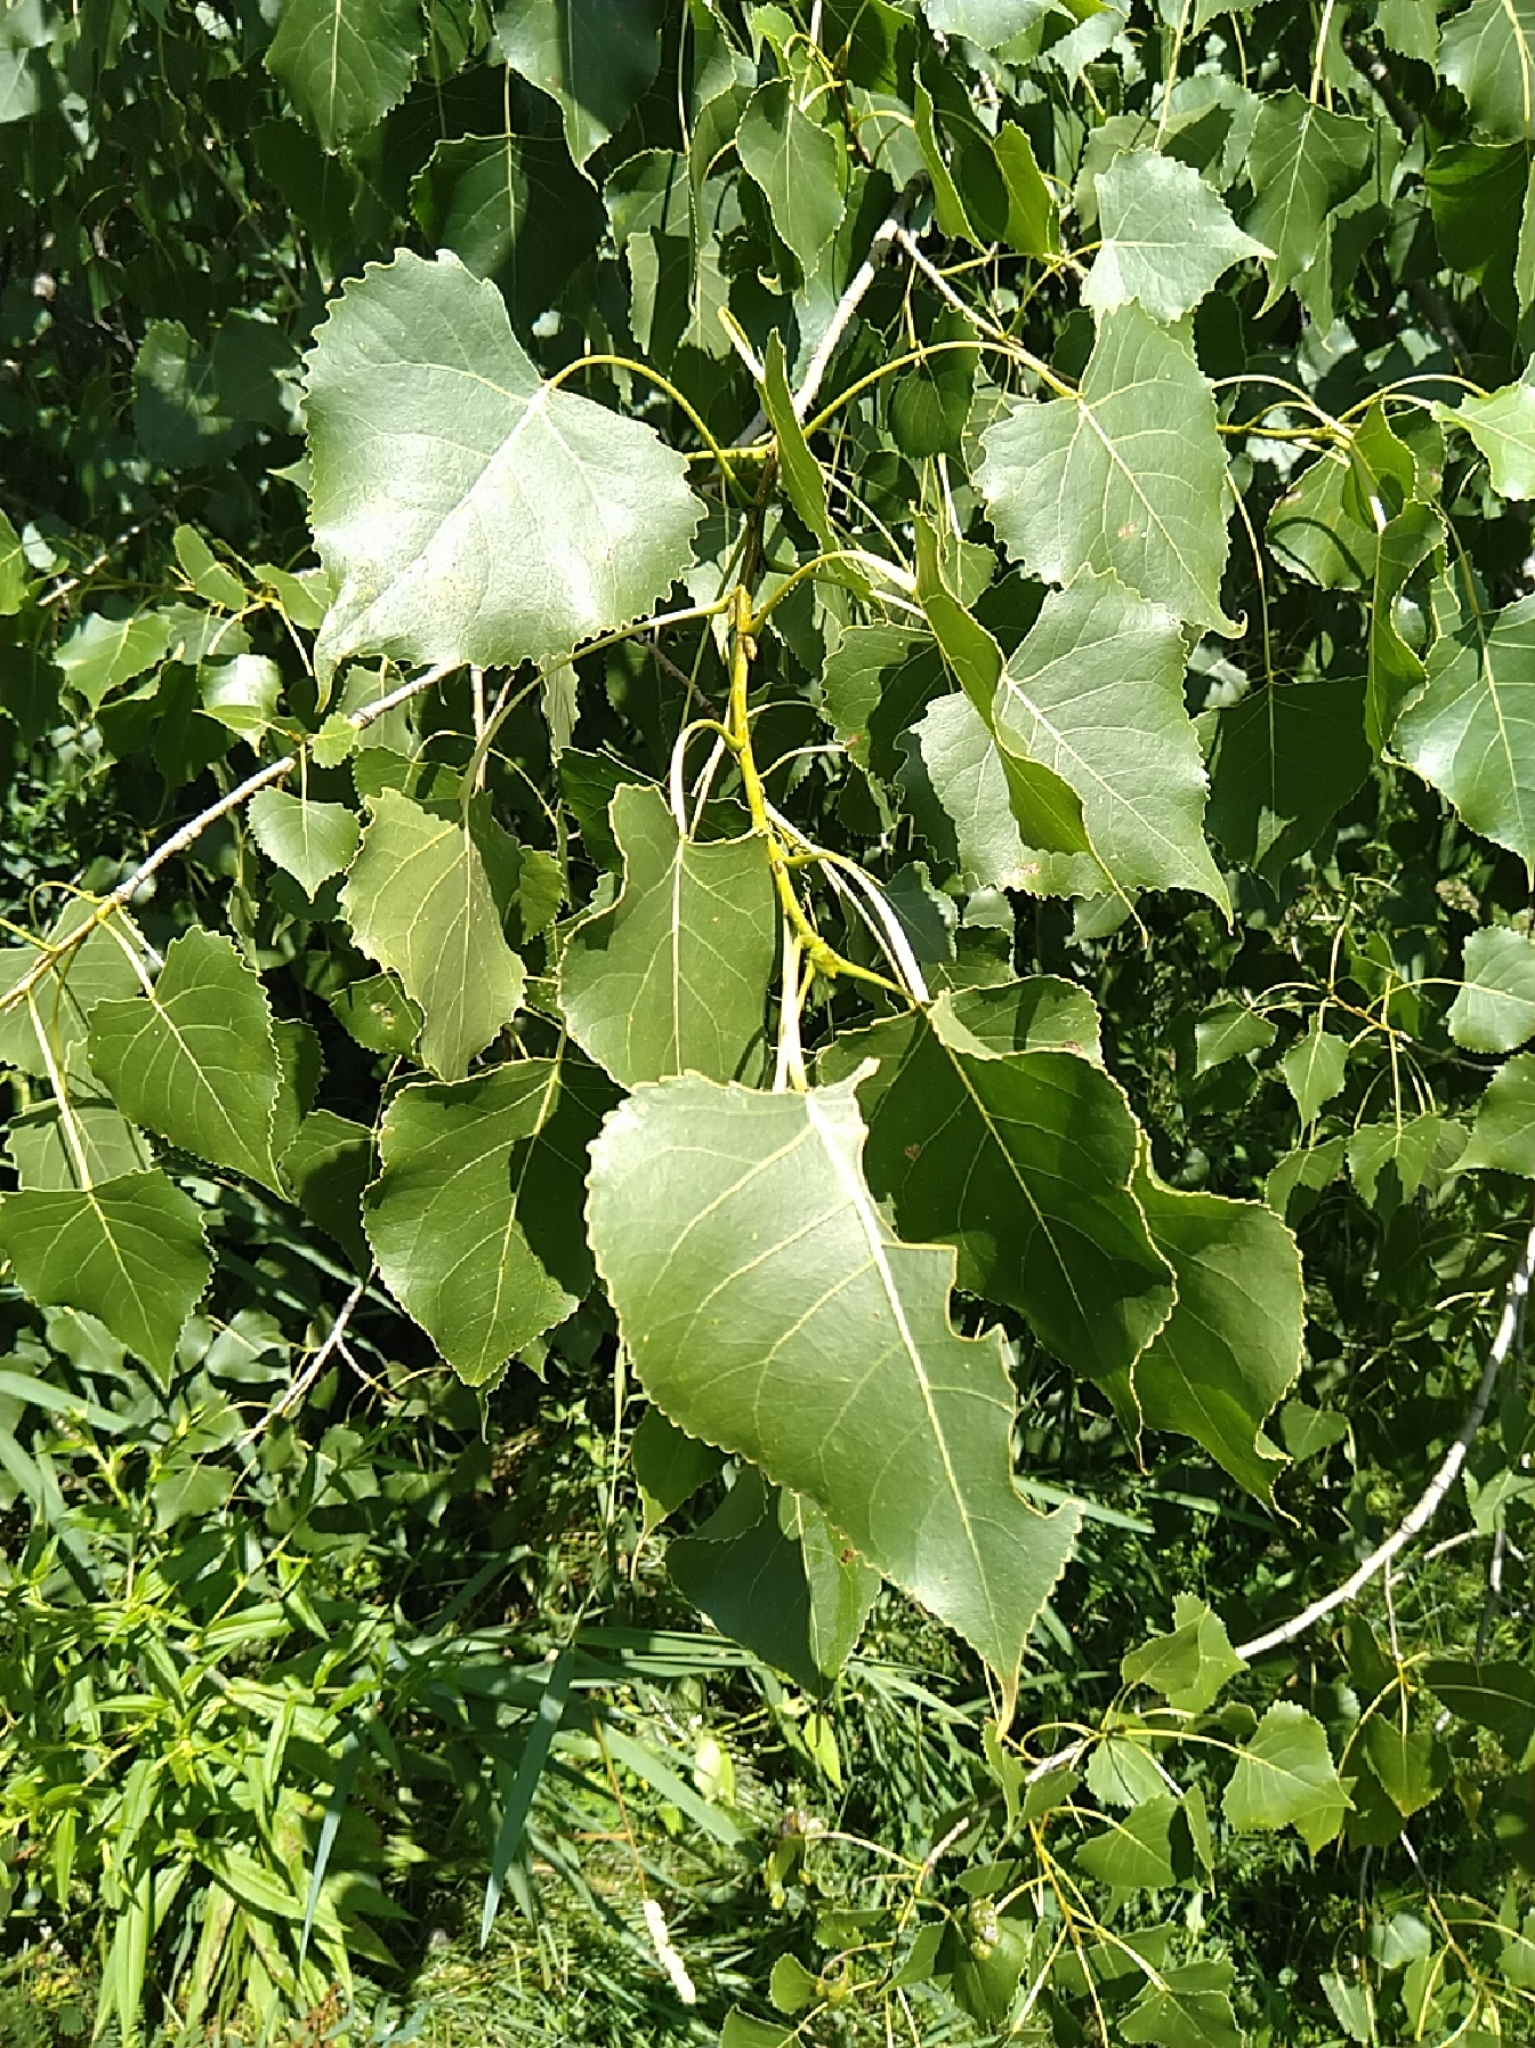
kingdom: Plantae
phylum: Tracheophyta
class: Magnoliopsida
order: Malpighiales
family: Salicaceae
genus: Populus
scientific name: Populus deltoides
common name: Eastern cottonwood
